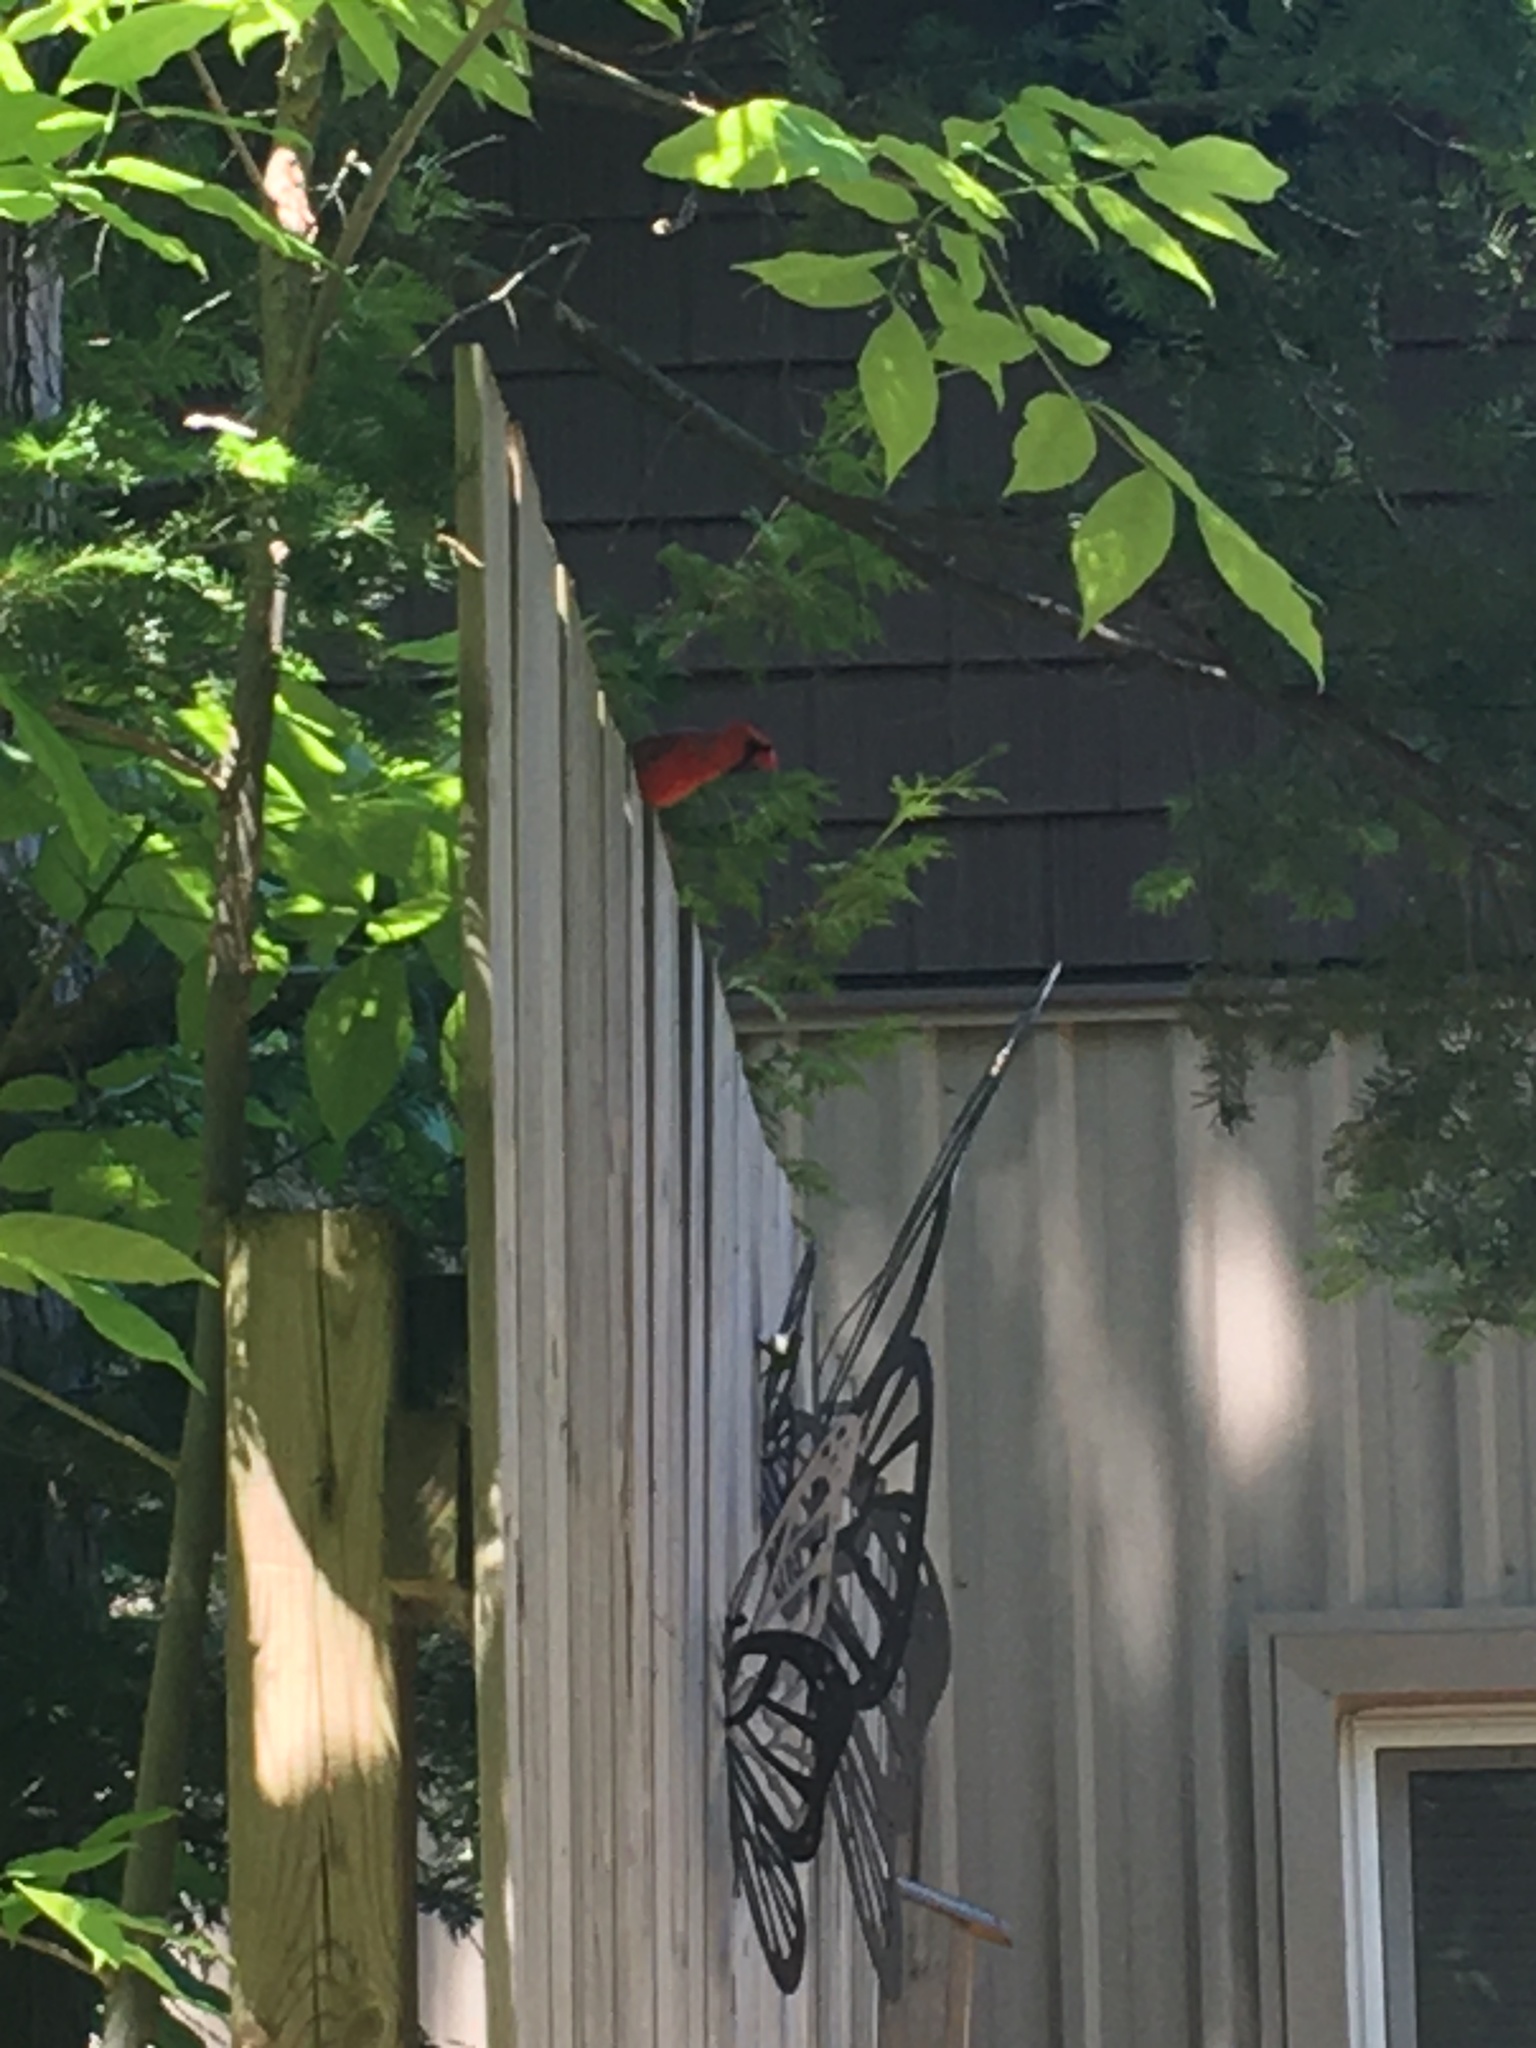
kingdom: Animalia
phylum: Chordata
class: Aves
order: Passeriformes
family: Cardinalidae
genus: Cardinalis
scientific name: Cardinalis cardinalis
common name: Northern cardinal
